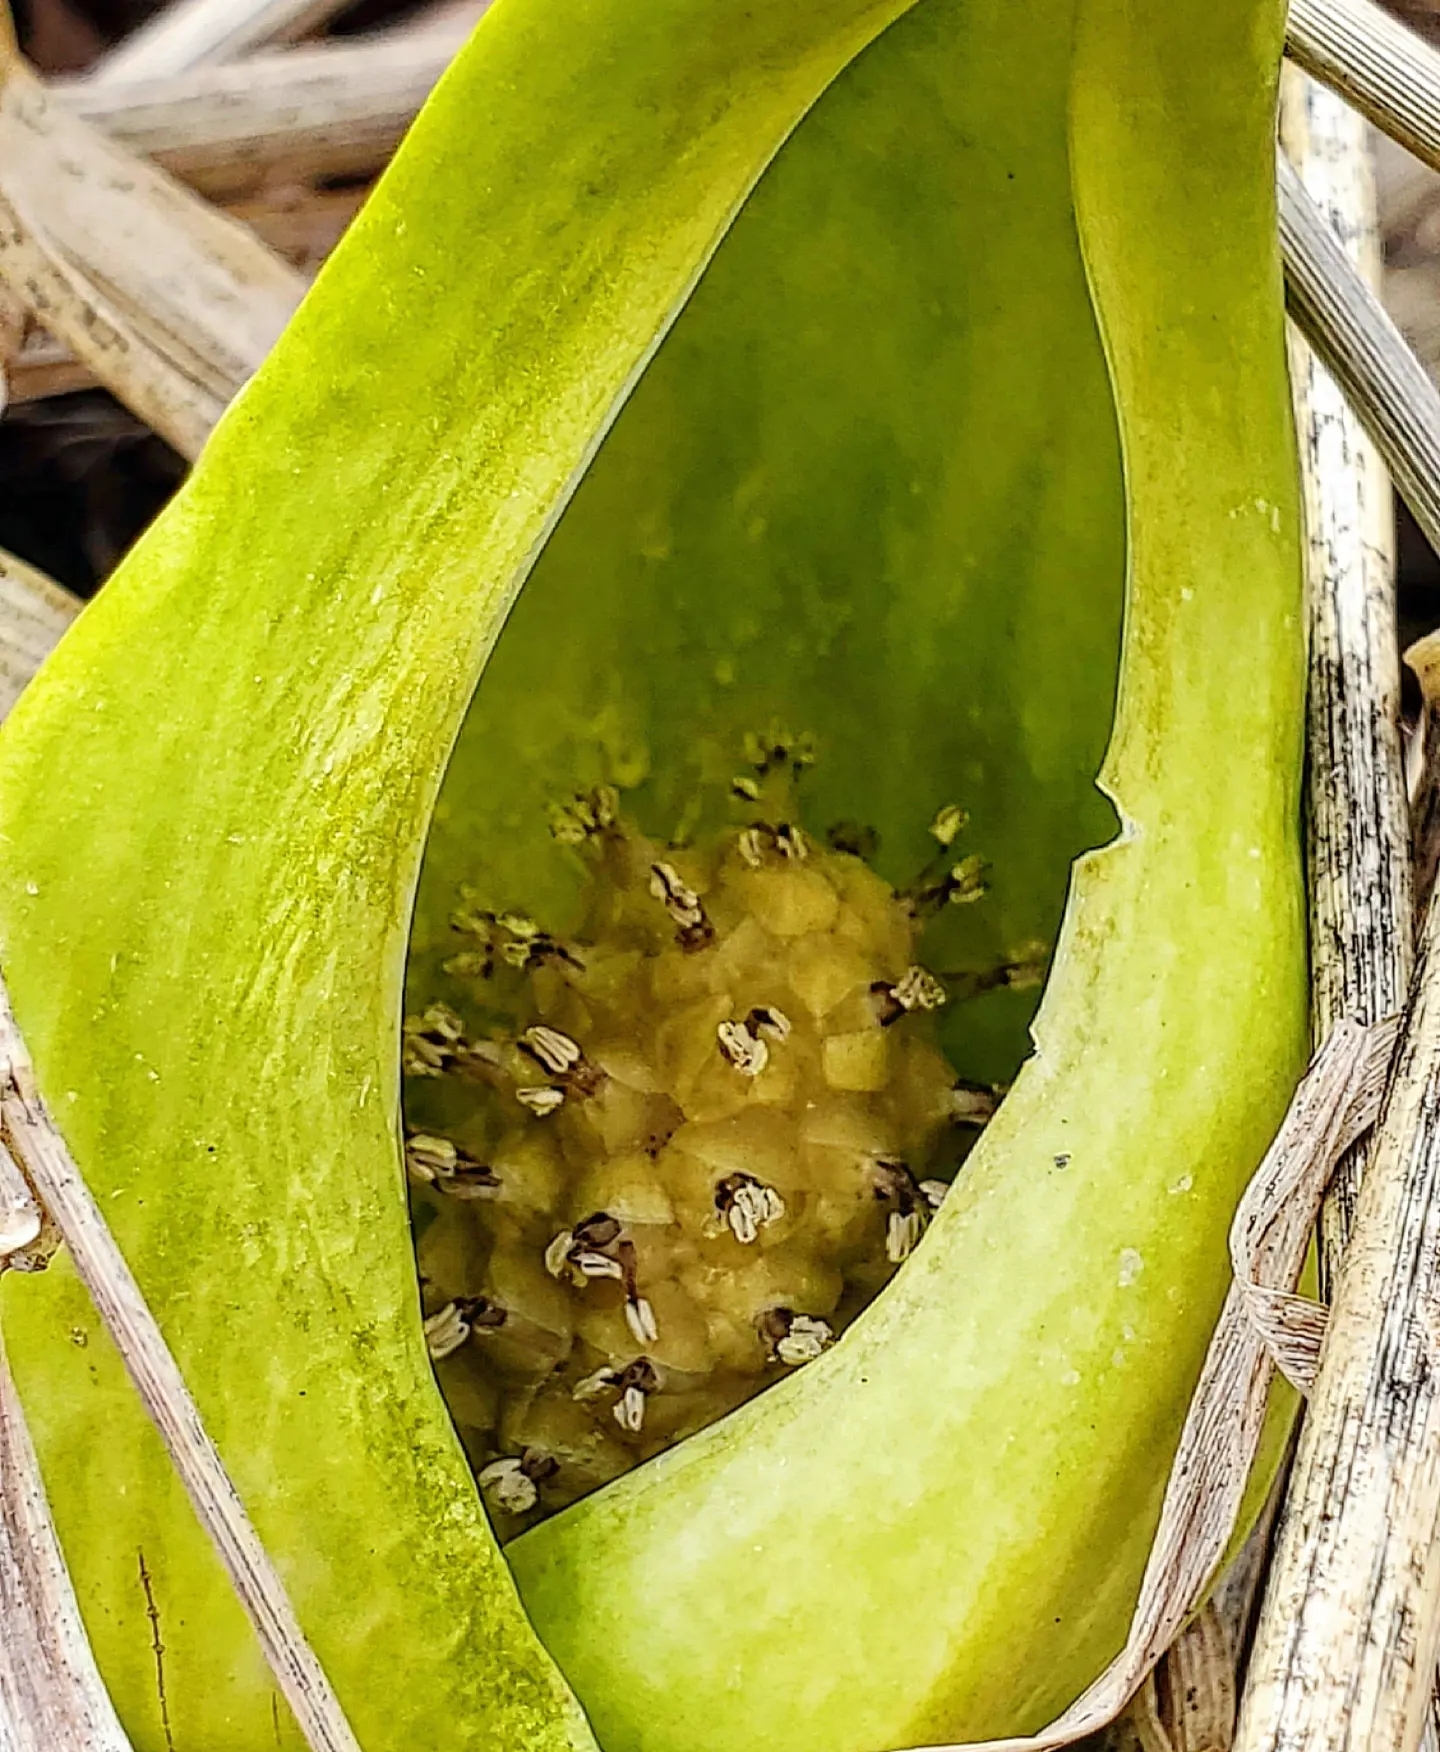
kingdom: Plantae
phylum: Tracheophyta
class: Liliopsida
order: Alismatales
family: Araceae
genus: Symplocarpus
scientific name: Symplocarpus foetidus
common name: Eastern skunk cabbage
